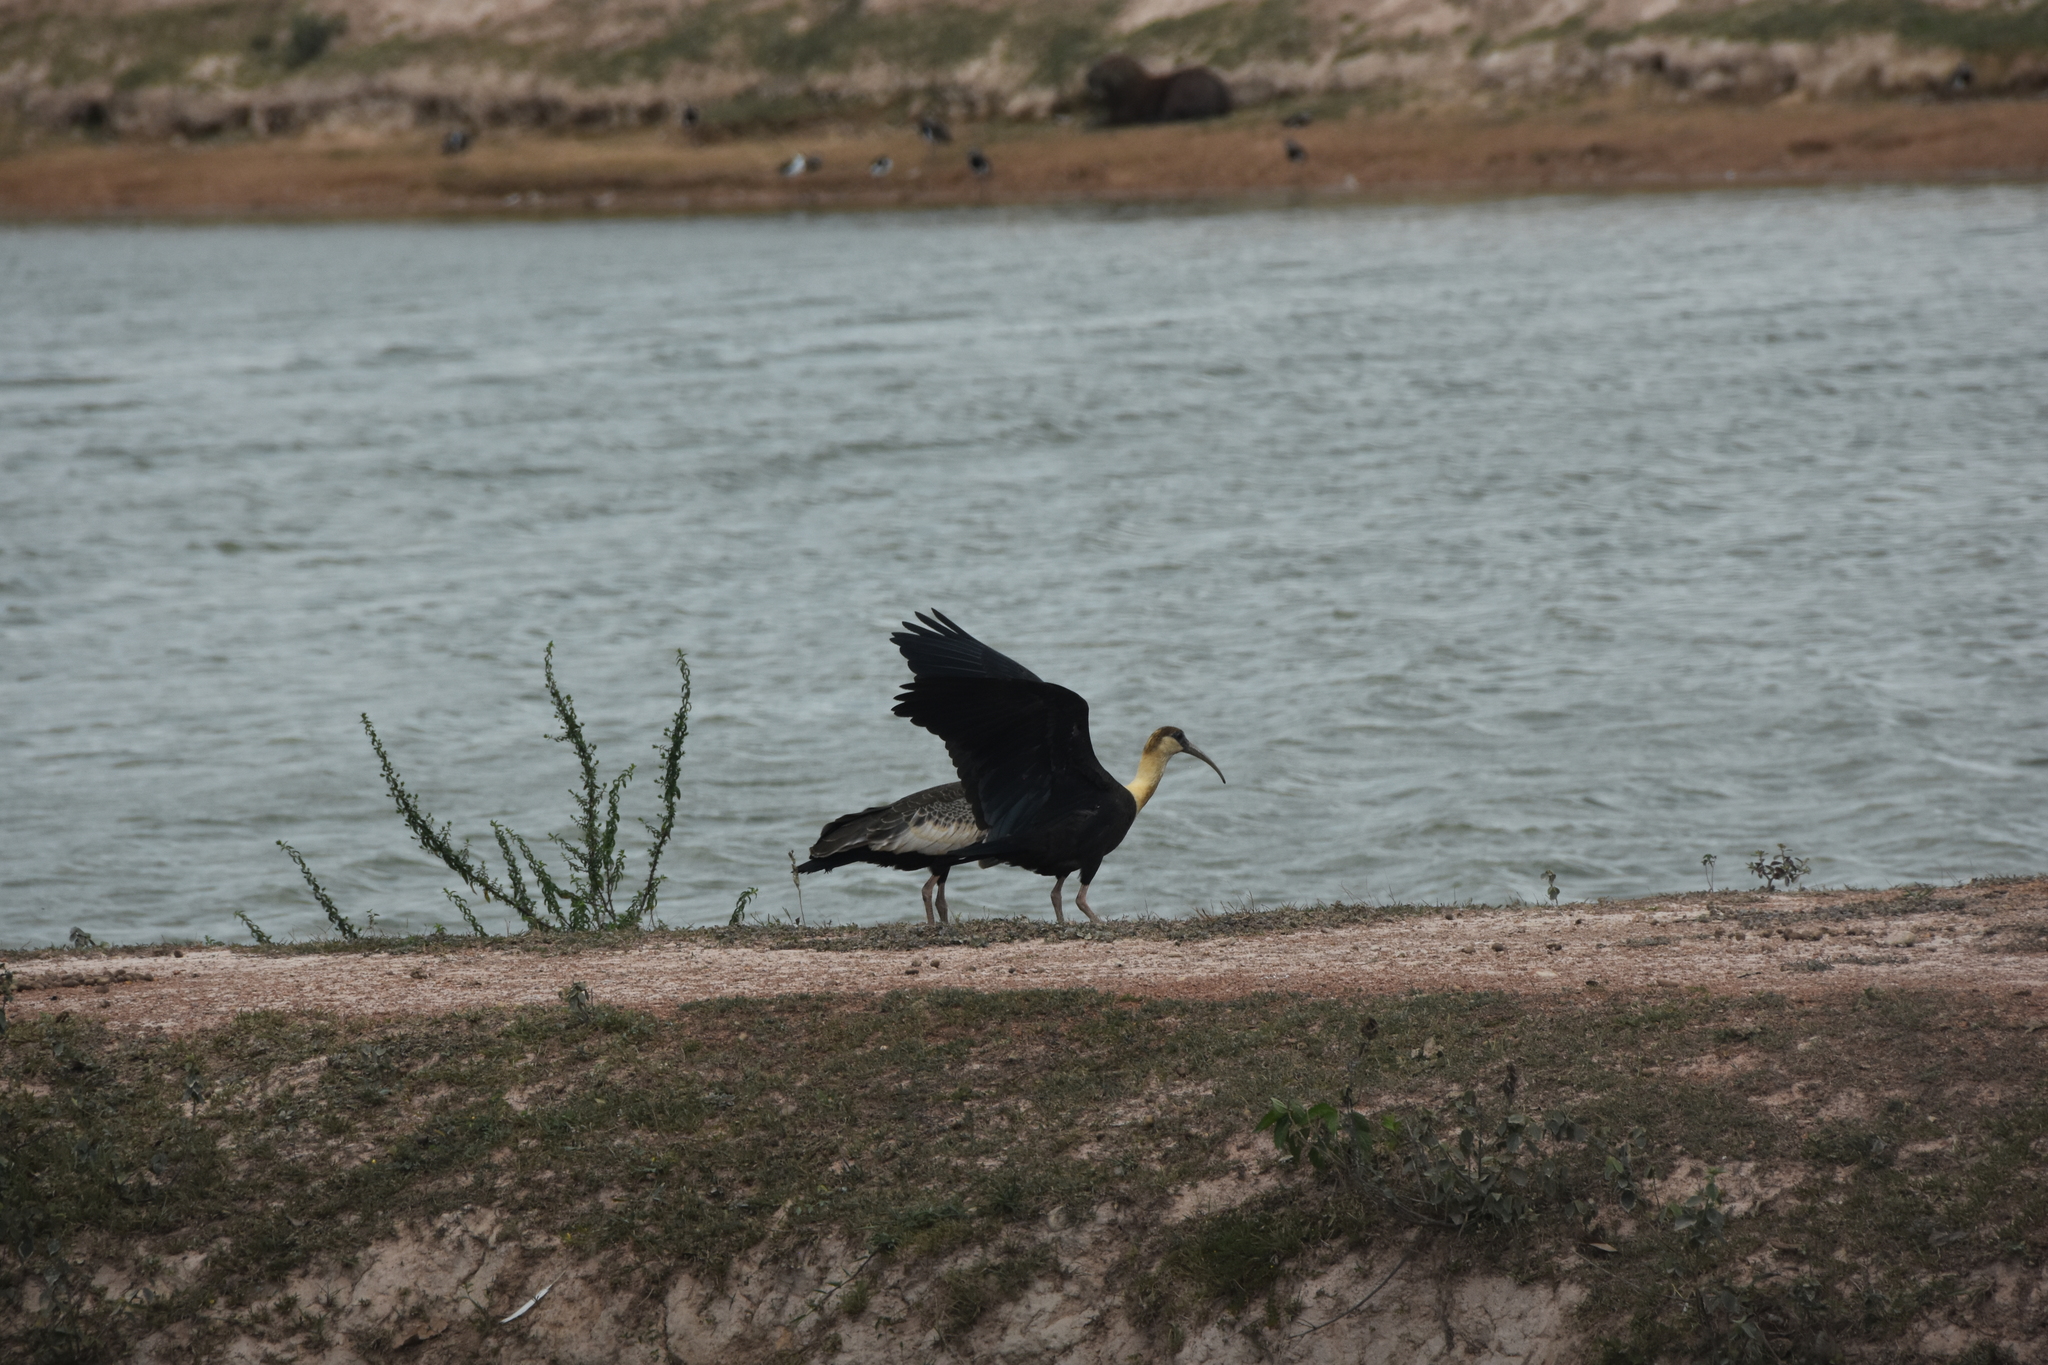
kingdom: Animalia
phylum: Chordata
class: Aves
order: Pelecaniformes
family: Threskiornithidae
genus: Theristicus
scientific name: Theristicus caudatus
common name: Buff-necked ibis
